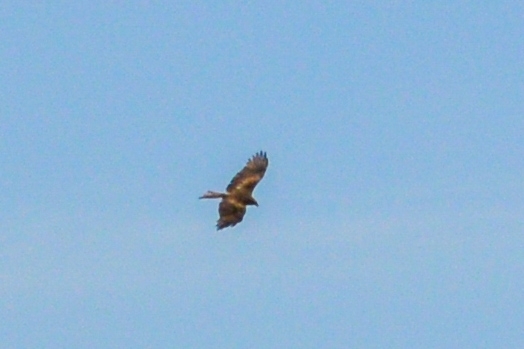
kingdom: Animalia
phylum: Chordata
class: Aves
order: Accipitriformes
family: Accipitridae
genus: Milvus
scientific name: Milvus migrans
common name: Black kite
